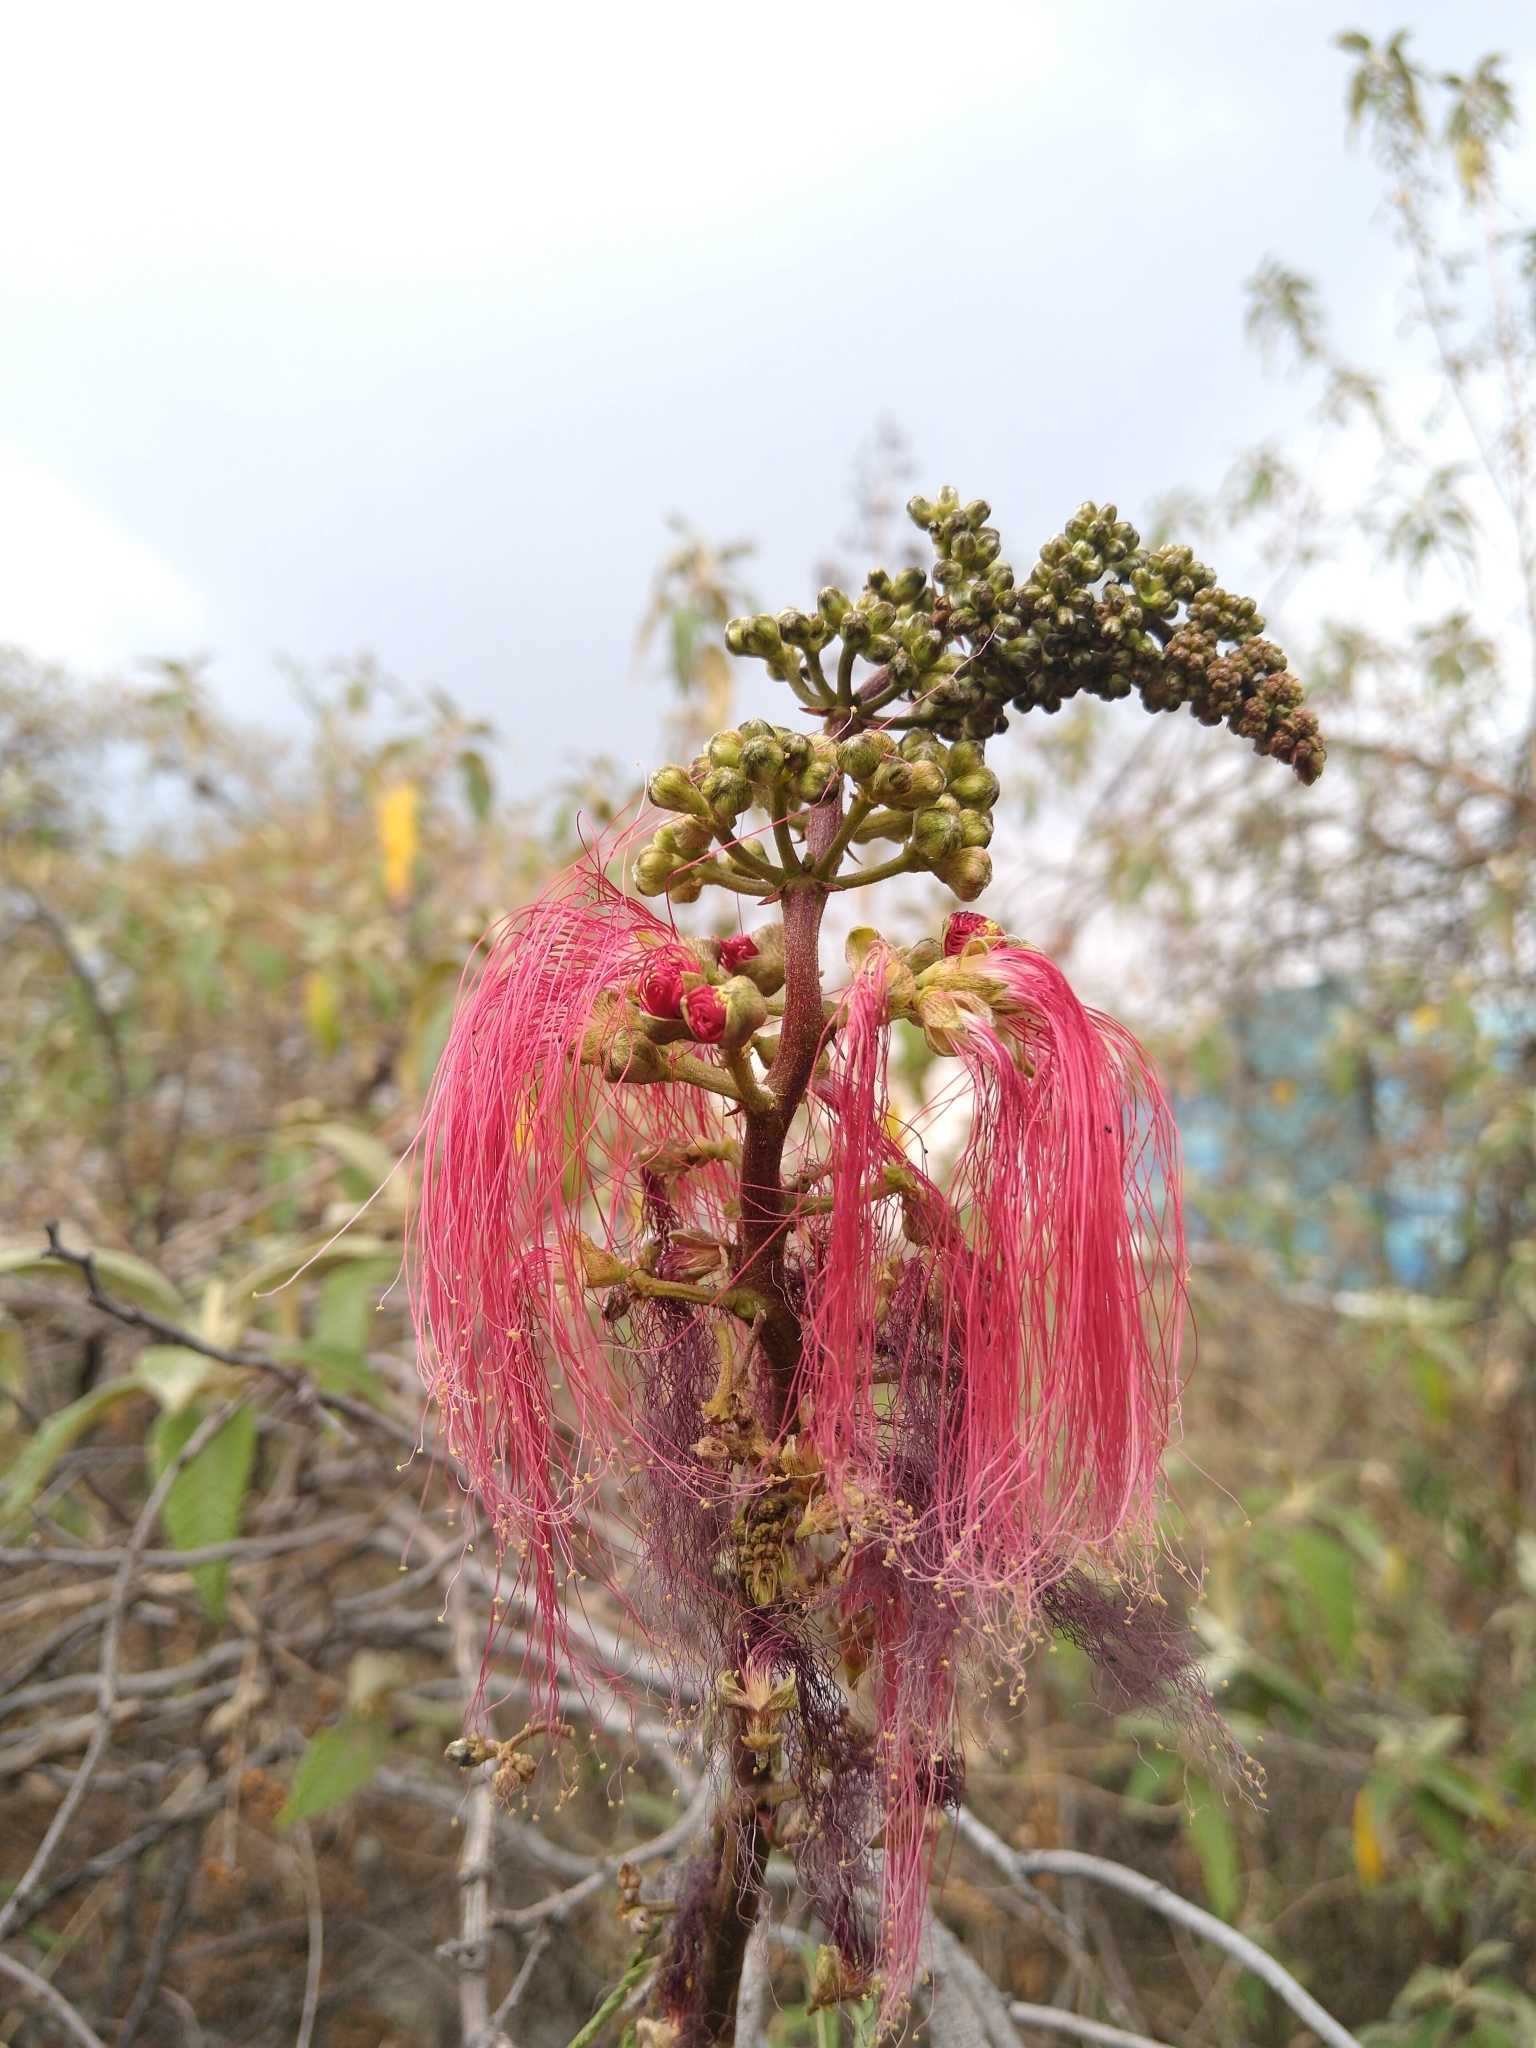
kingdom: Plantae
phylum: Tracheophyta
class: Magnoliopsida
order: Fabales
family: Fabaceae
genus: Calliandra
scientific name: Calliandra houstoniana
